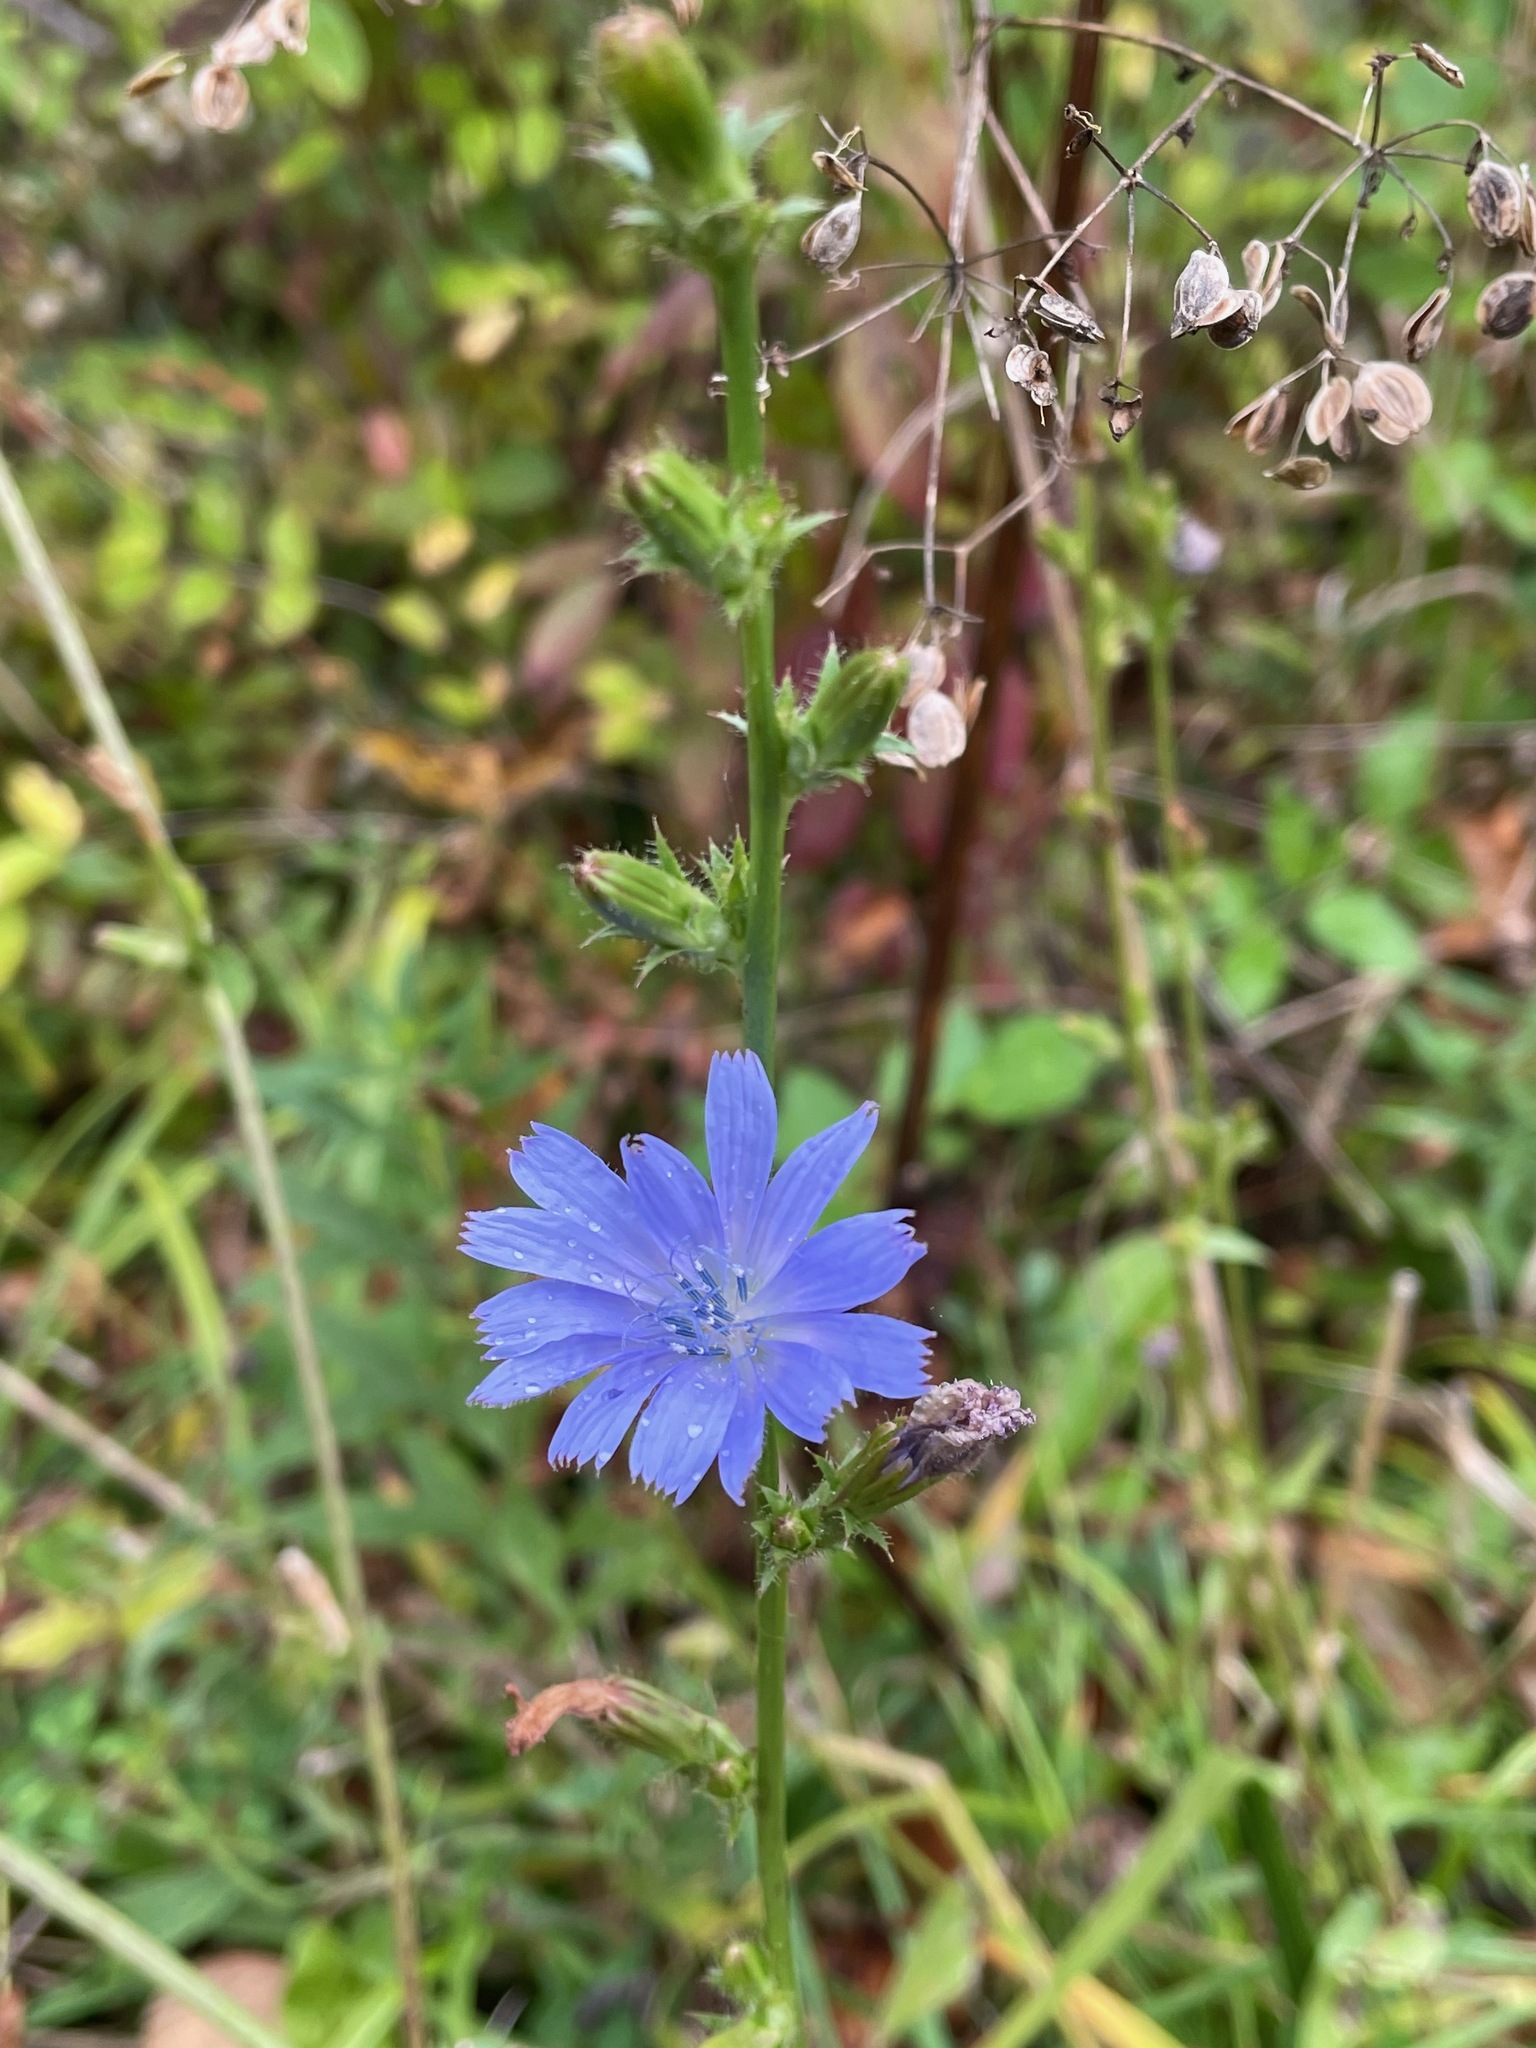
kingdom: Plantae
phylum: Tracheophyta
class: Magnoliopsida
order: Asterales
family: Asteraceae
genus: Cichorium
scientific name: Cichorium intybus
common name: Chicory
